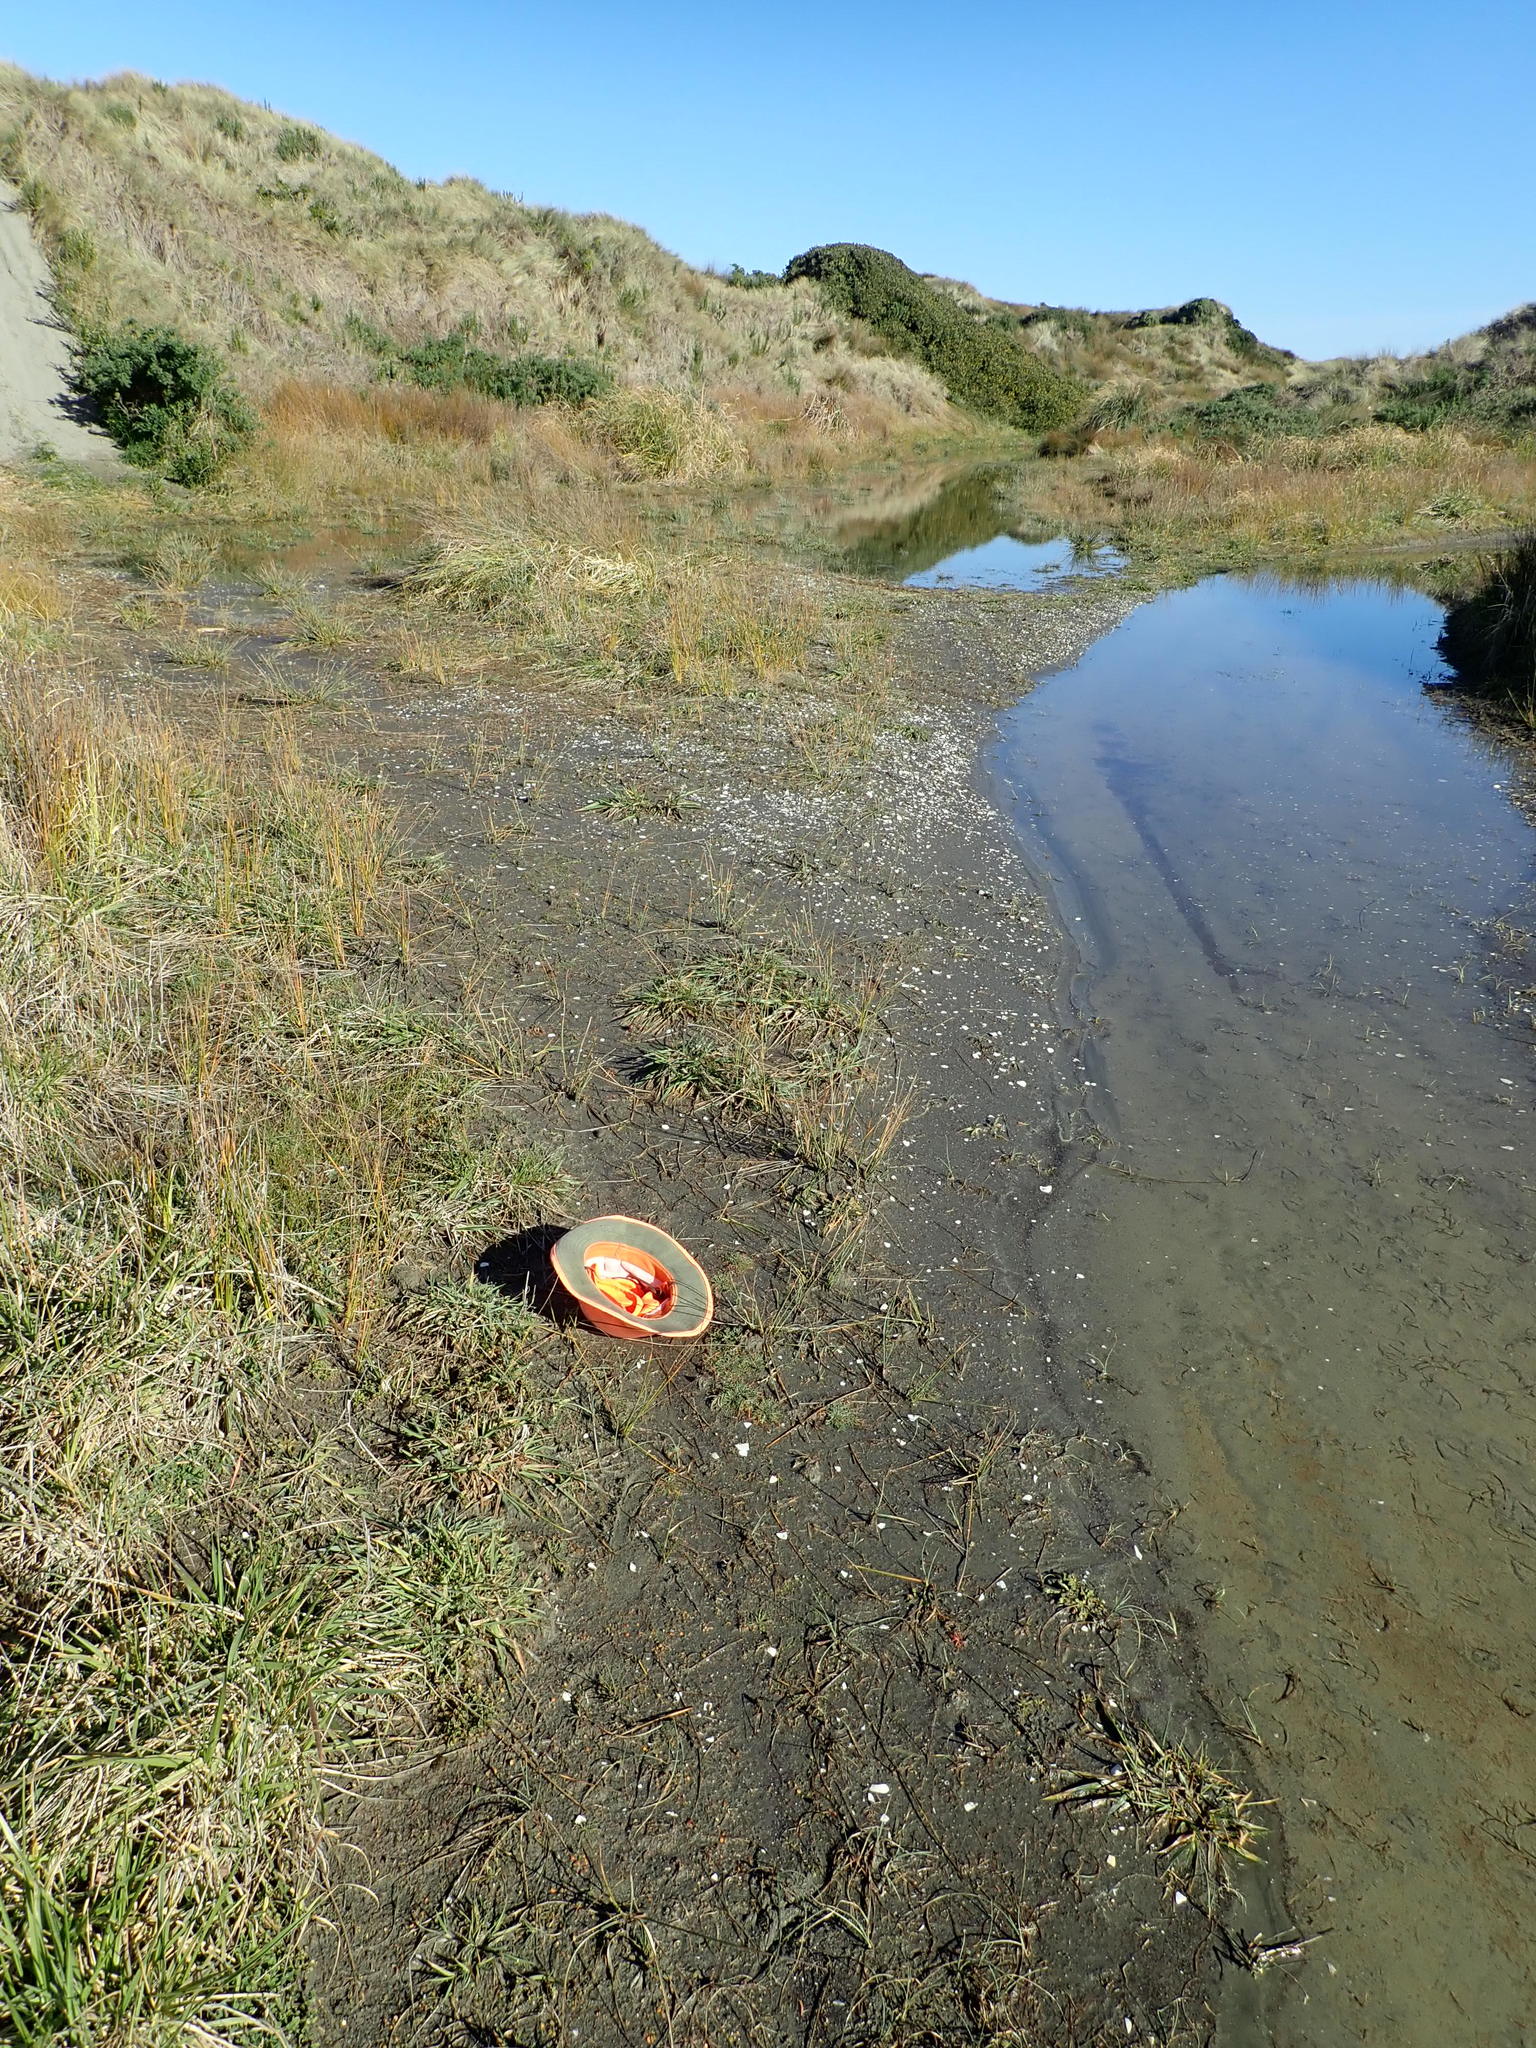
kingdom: Plantae
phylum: Tracheophyta
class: Magnoliopsida
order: Lamiales
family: Plantaginaceae
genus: Plantago
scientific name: Plantago coronopus
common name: Buck's-horn plantain
